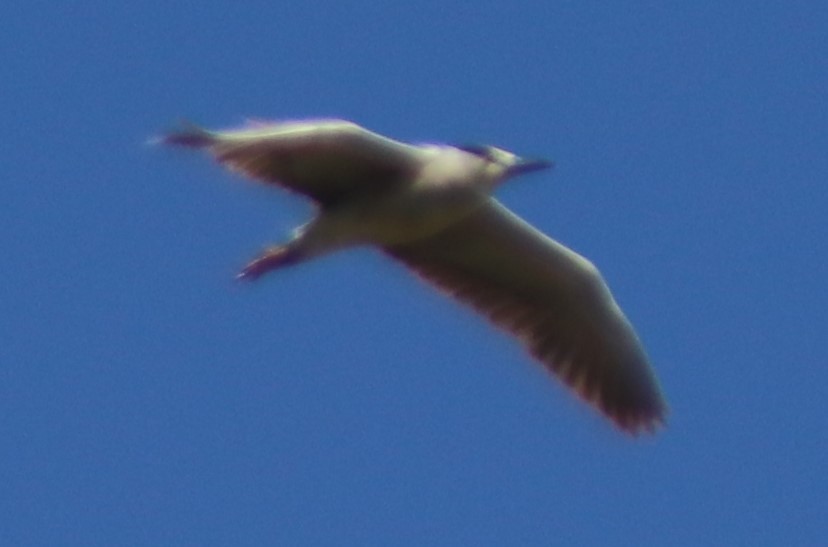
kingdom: Animalia
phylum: Chordata
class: Aves
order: Pelecaniformes
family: Ardeidae
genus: Nycticorax
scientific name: Nycticorax nycticorax
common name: Black-crowned night heron
